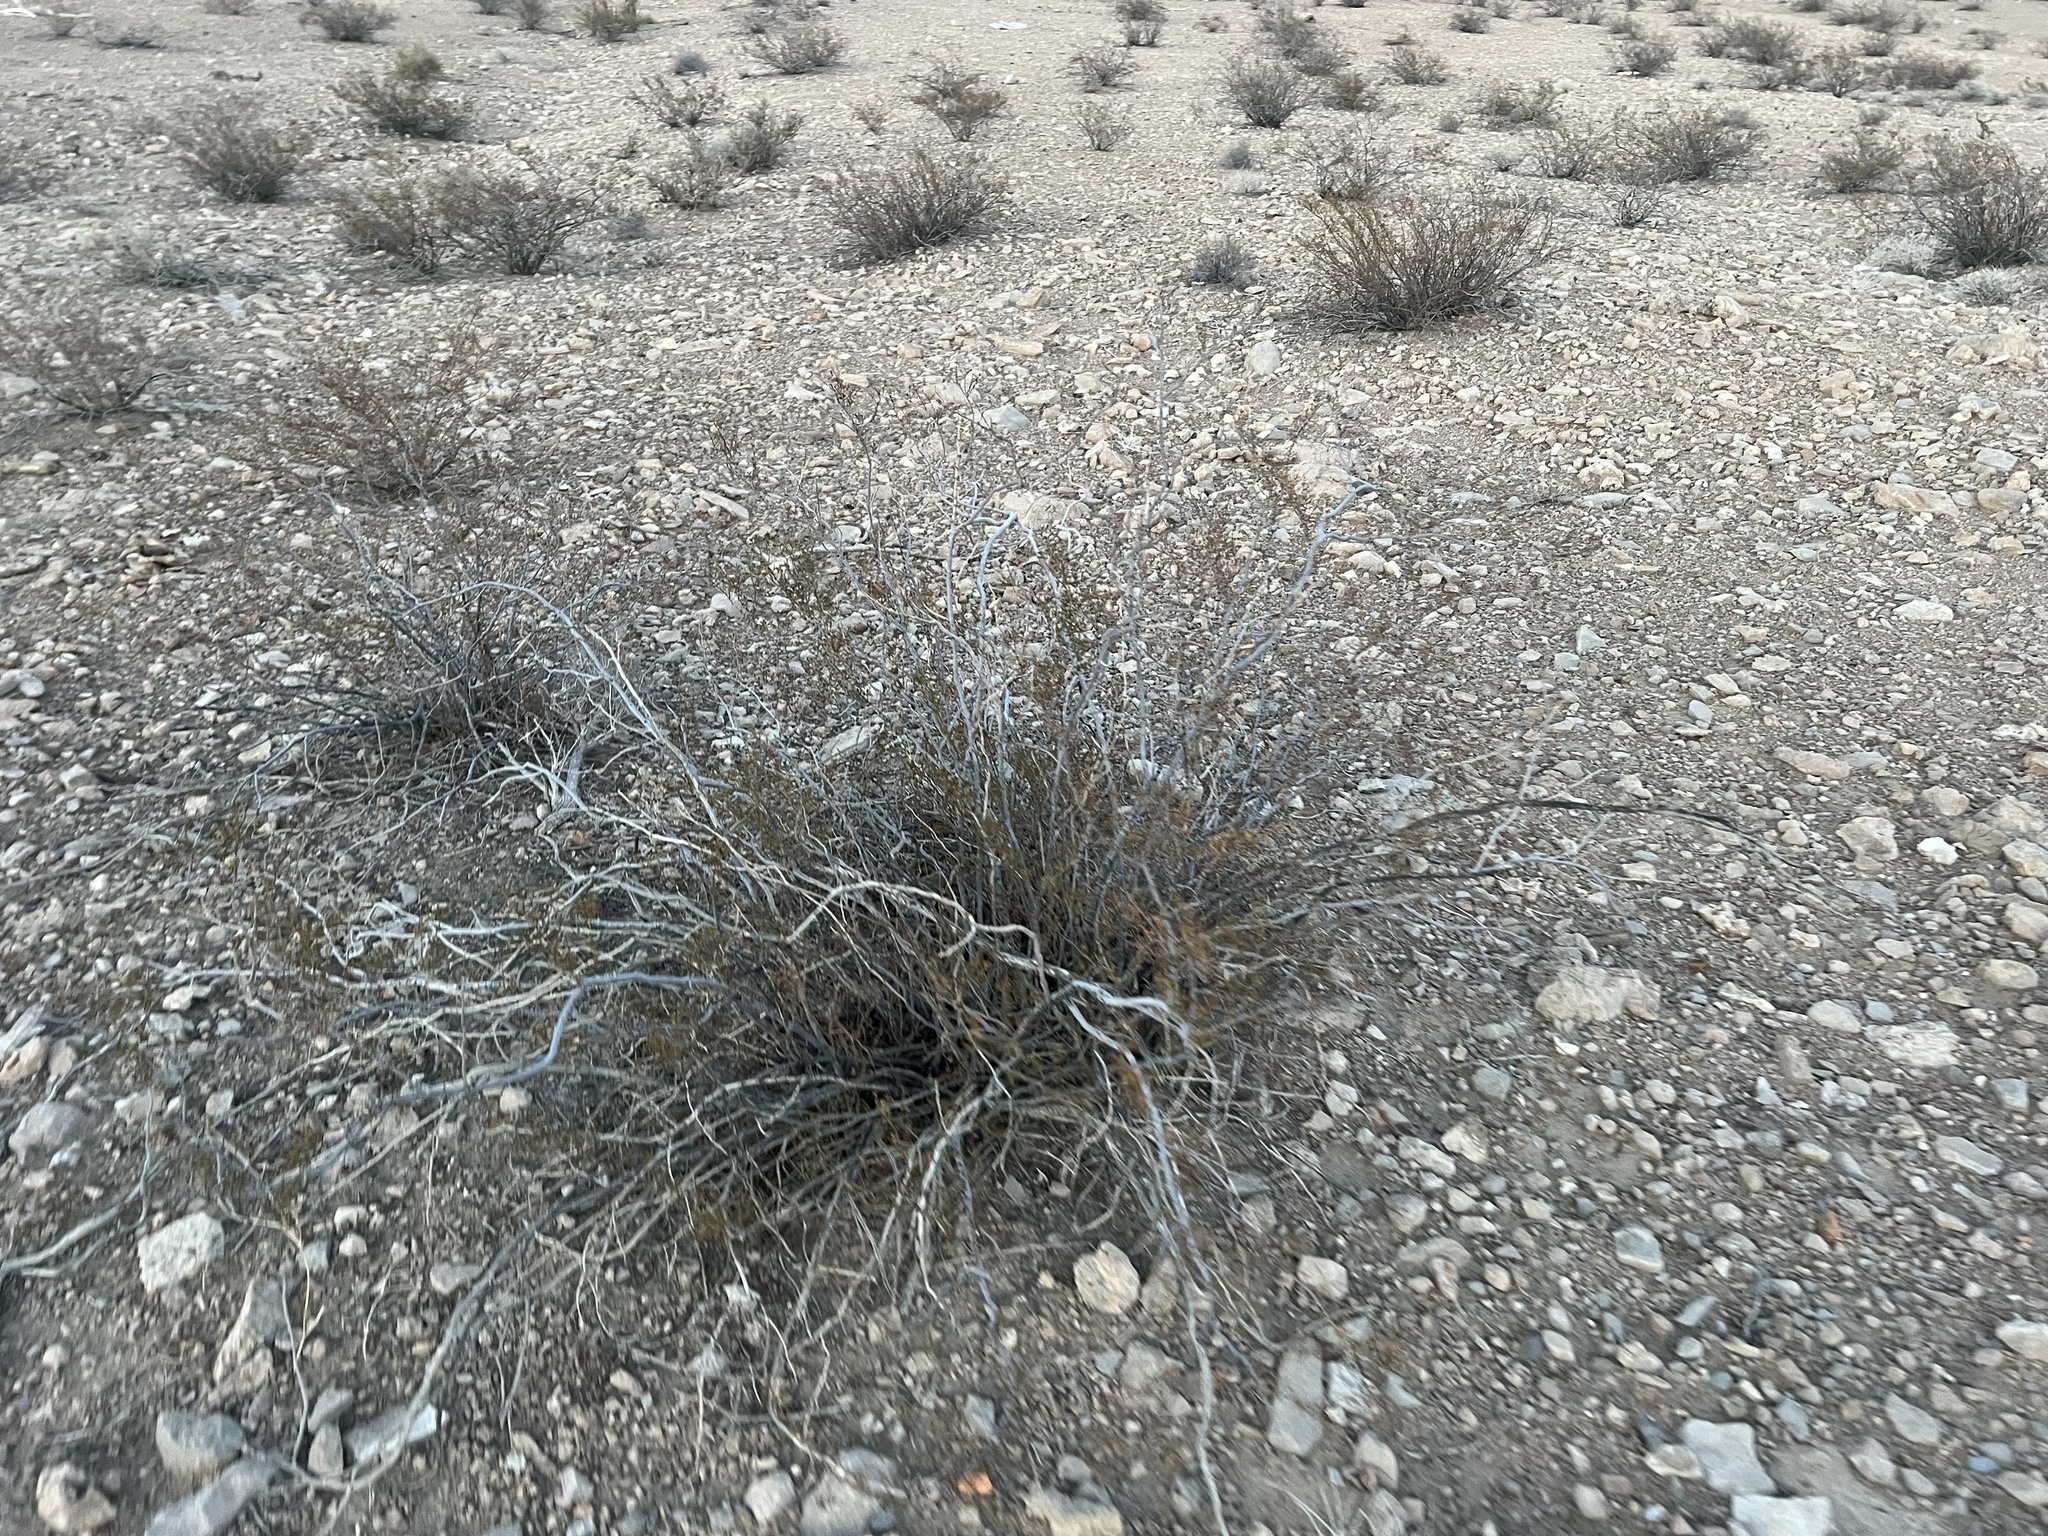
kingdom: Plantae
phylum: Tracheophyta
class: Magnoliopsida
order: Zygophyllales
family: Zygophyllaceae
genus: Larrea
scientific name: Larrea tridentata
